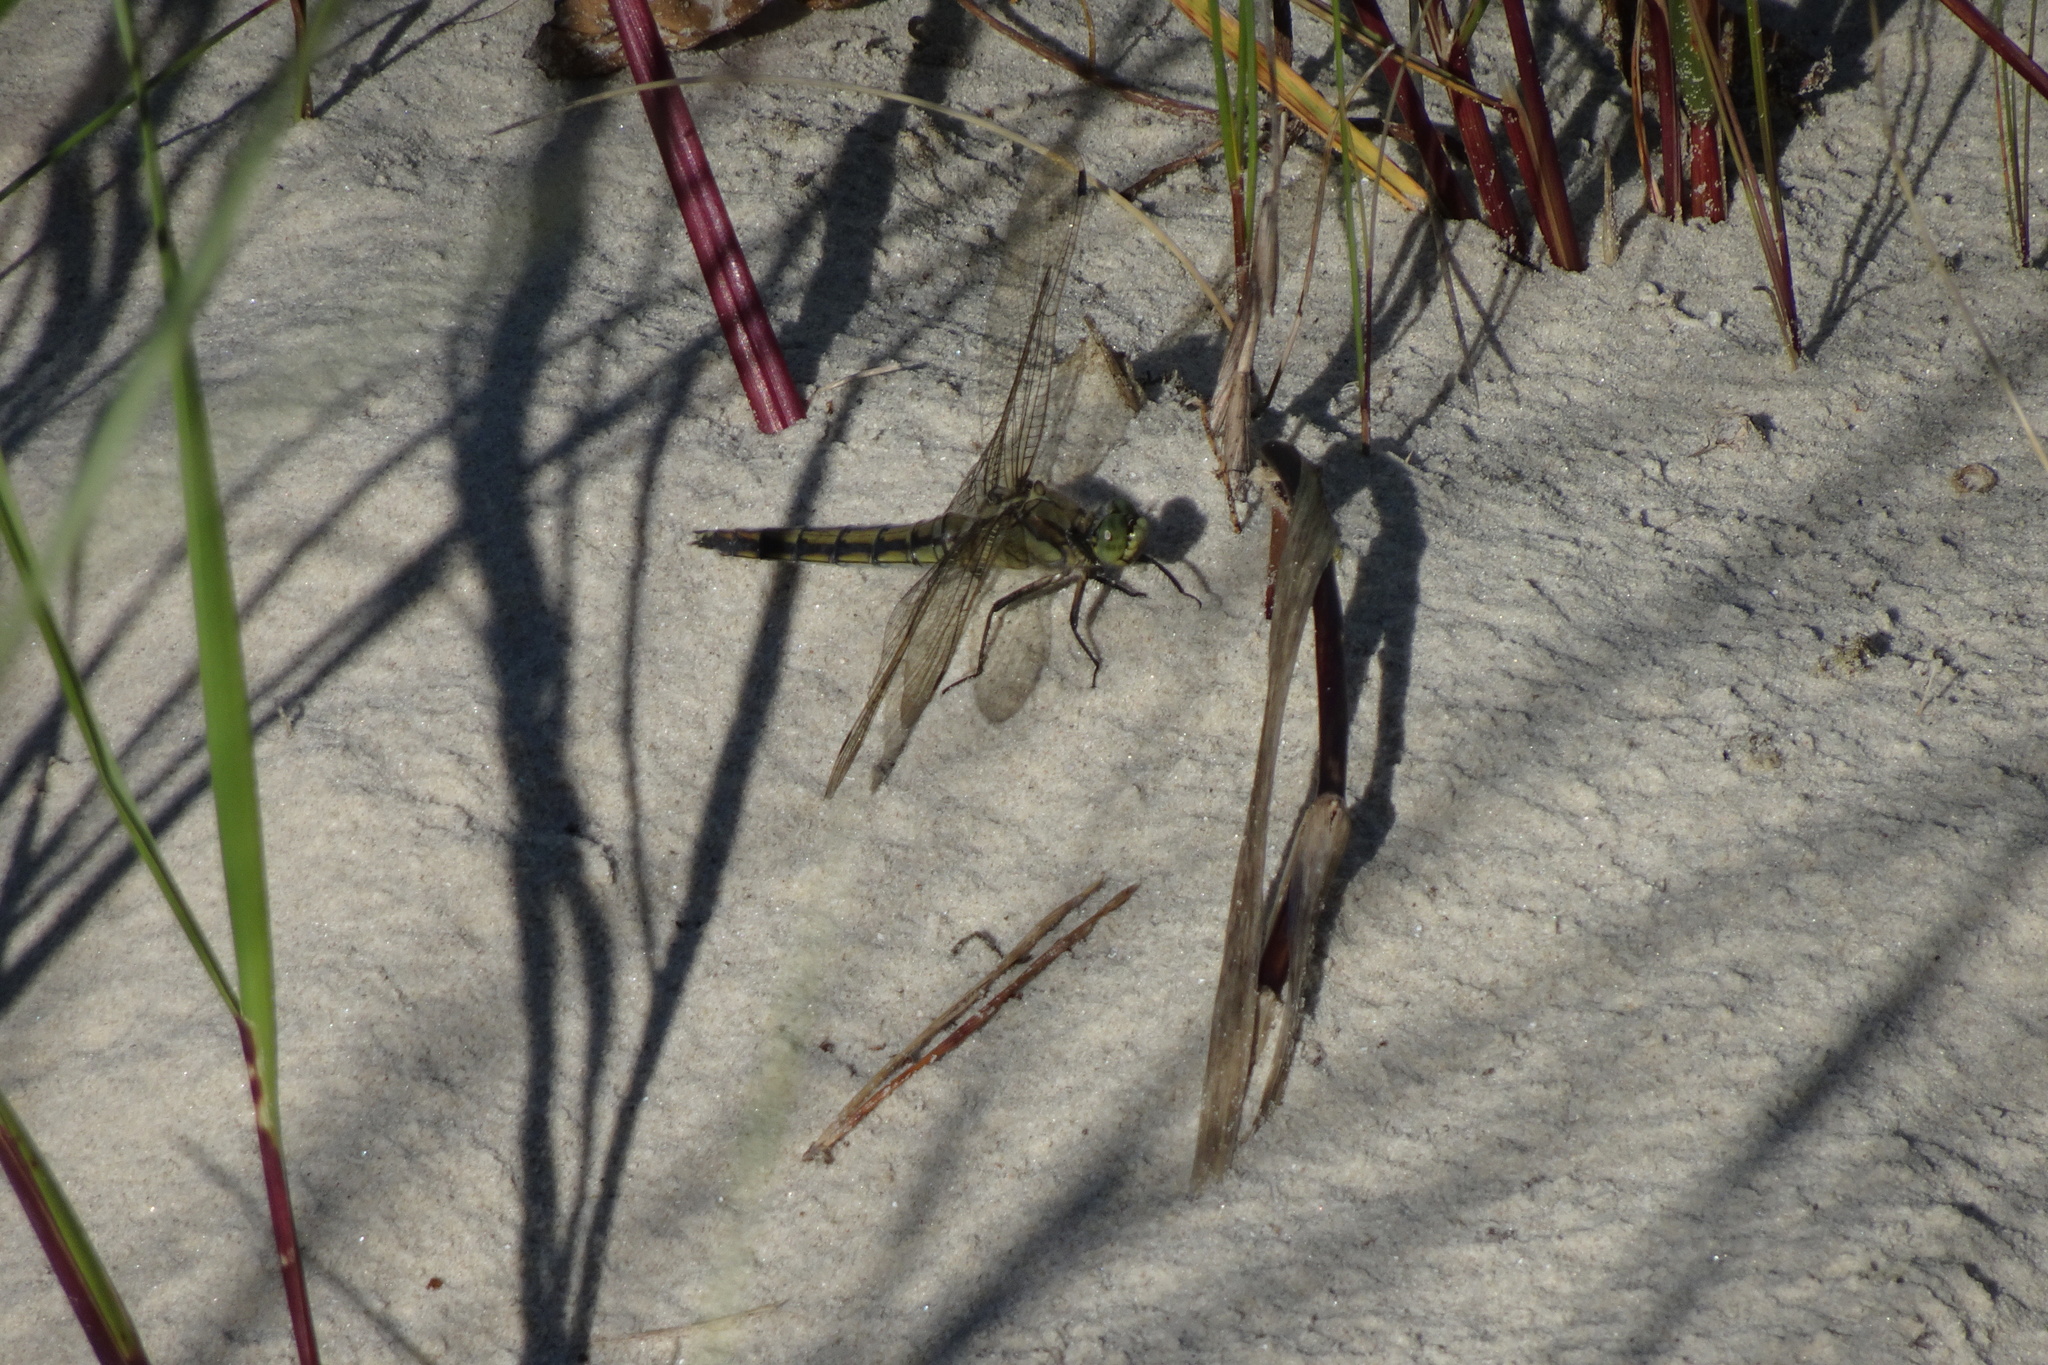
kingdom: Animalia
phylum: Arthropoda
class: Insecta
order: Odonata
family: Libellulidae
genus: Orthetrum
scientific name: Orthetrum cancellatum
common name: Black-tailed skimmer
